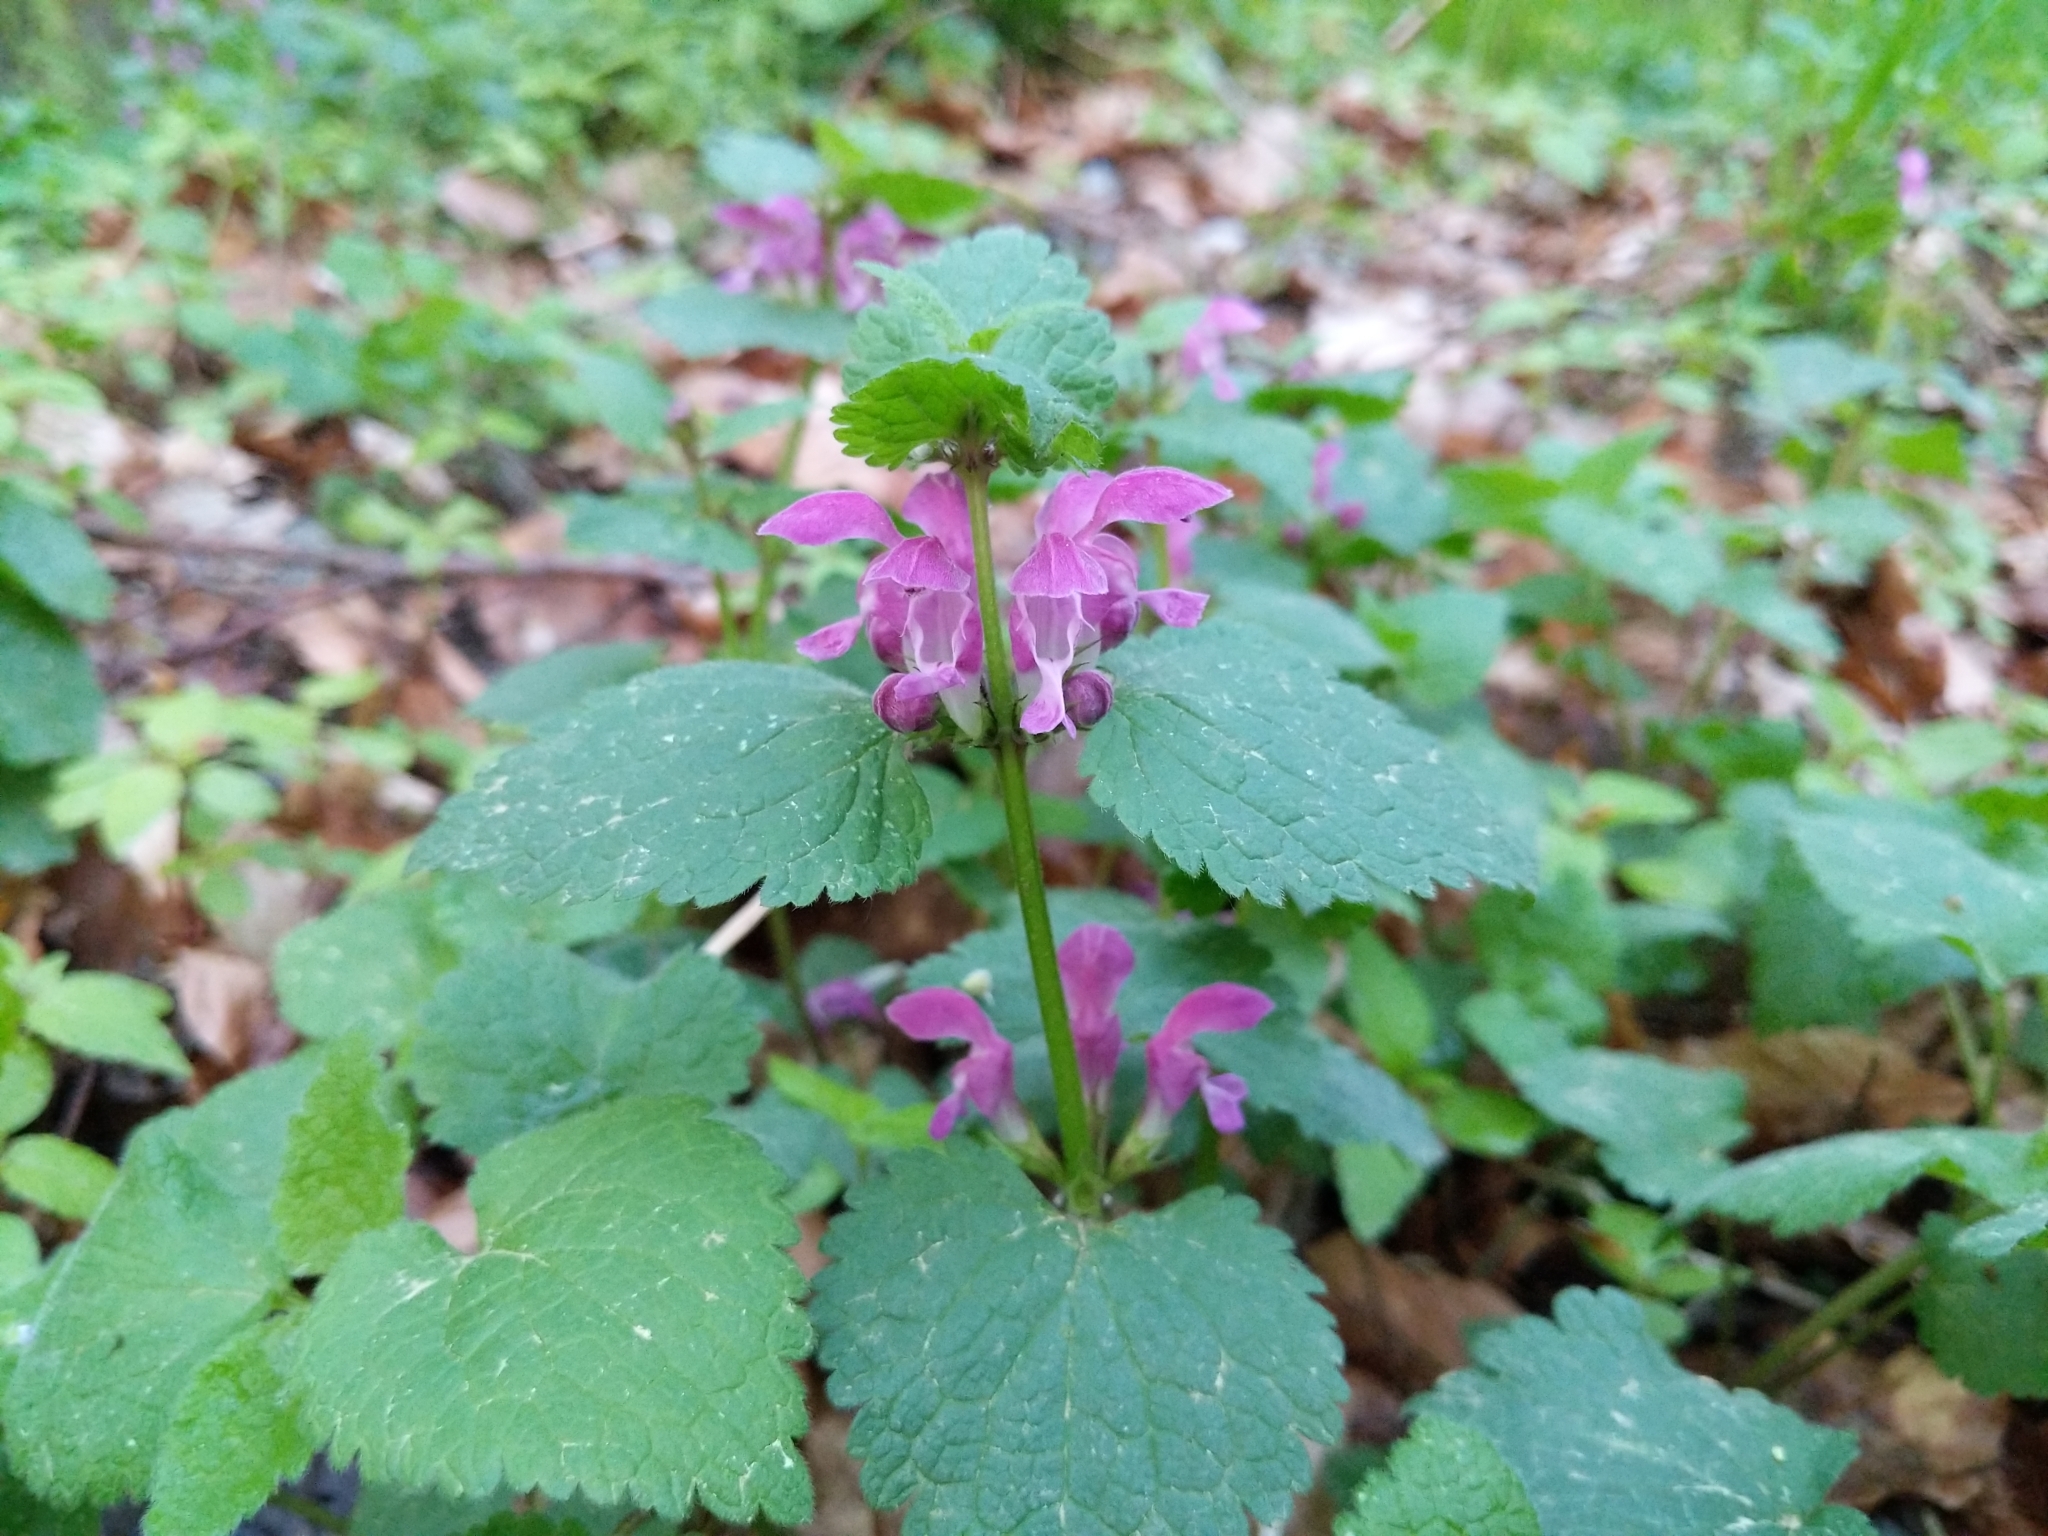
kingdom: Plantae
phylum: Tracheophyta
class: Magnoliopsida
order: Lamiales
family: Lamiaceae
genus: Lamium
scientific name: Lamium maculatum
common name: Spotted dead-nettle
